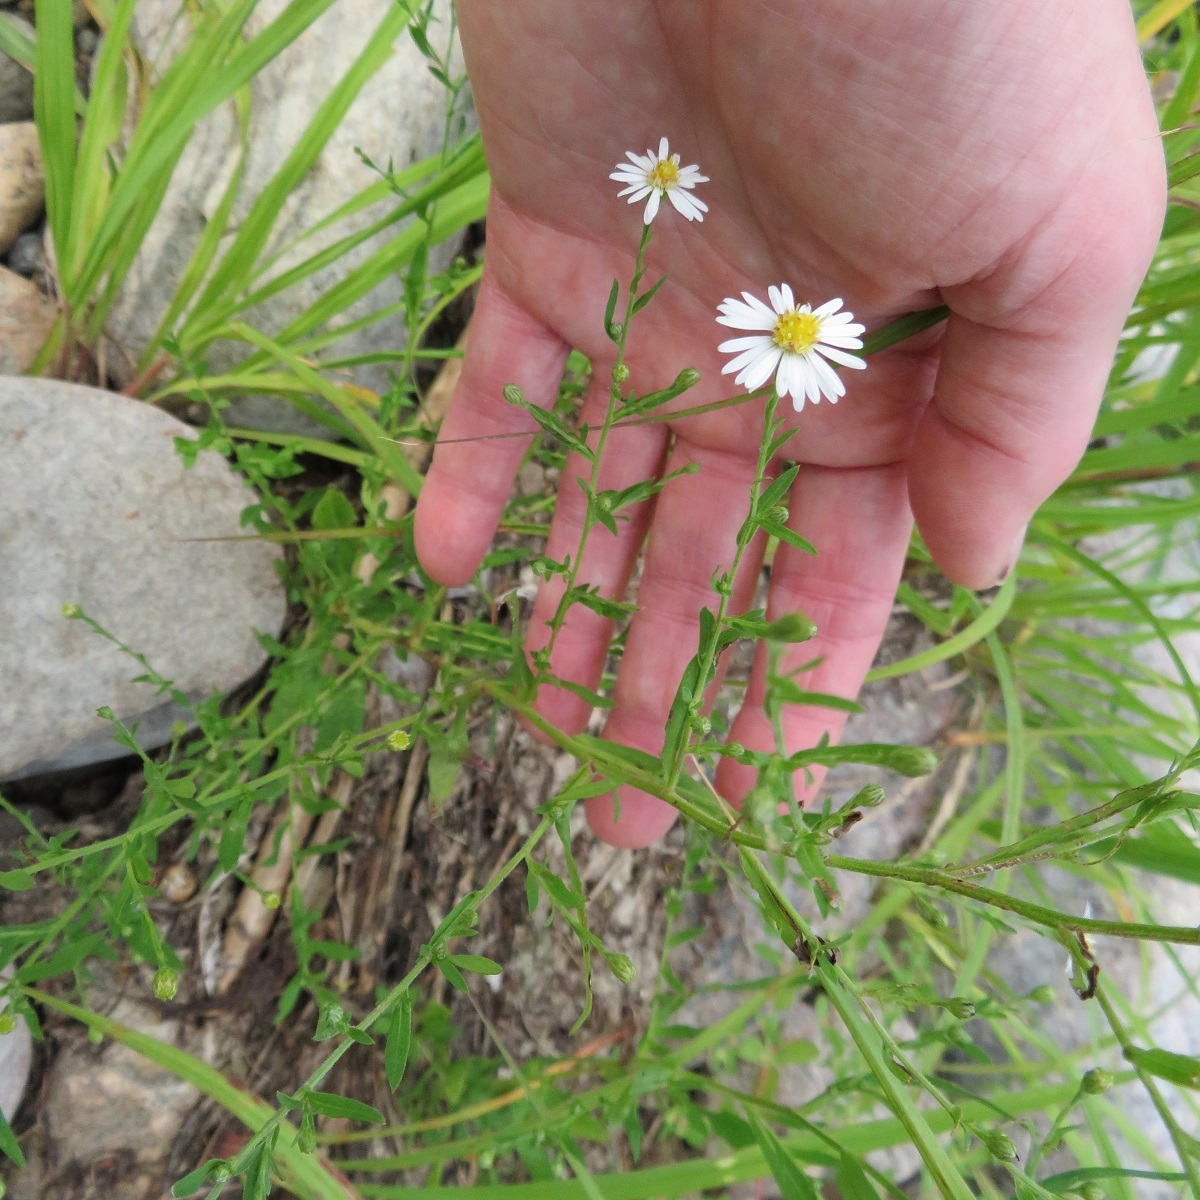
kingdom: Plantae
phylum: Tracheophyta
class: Magnoliopsida
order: Asterales
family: Asteraceae
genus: Symphyotrichum
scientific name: Symphyotrichum ontarionis
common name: Bottomland aster
